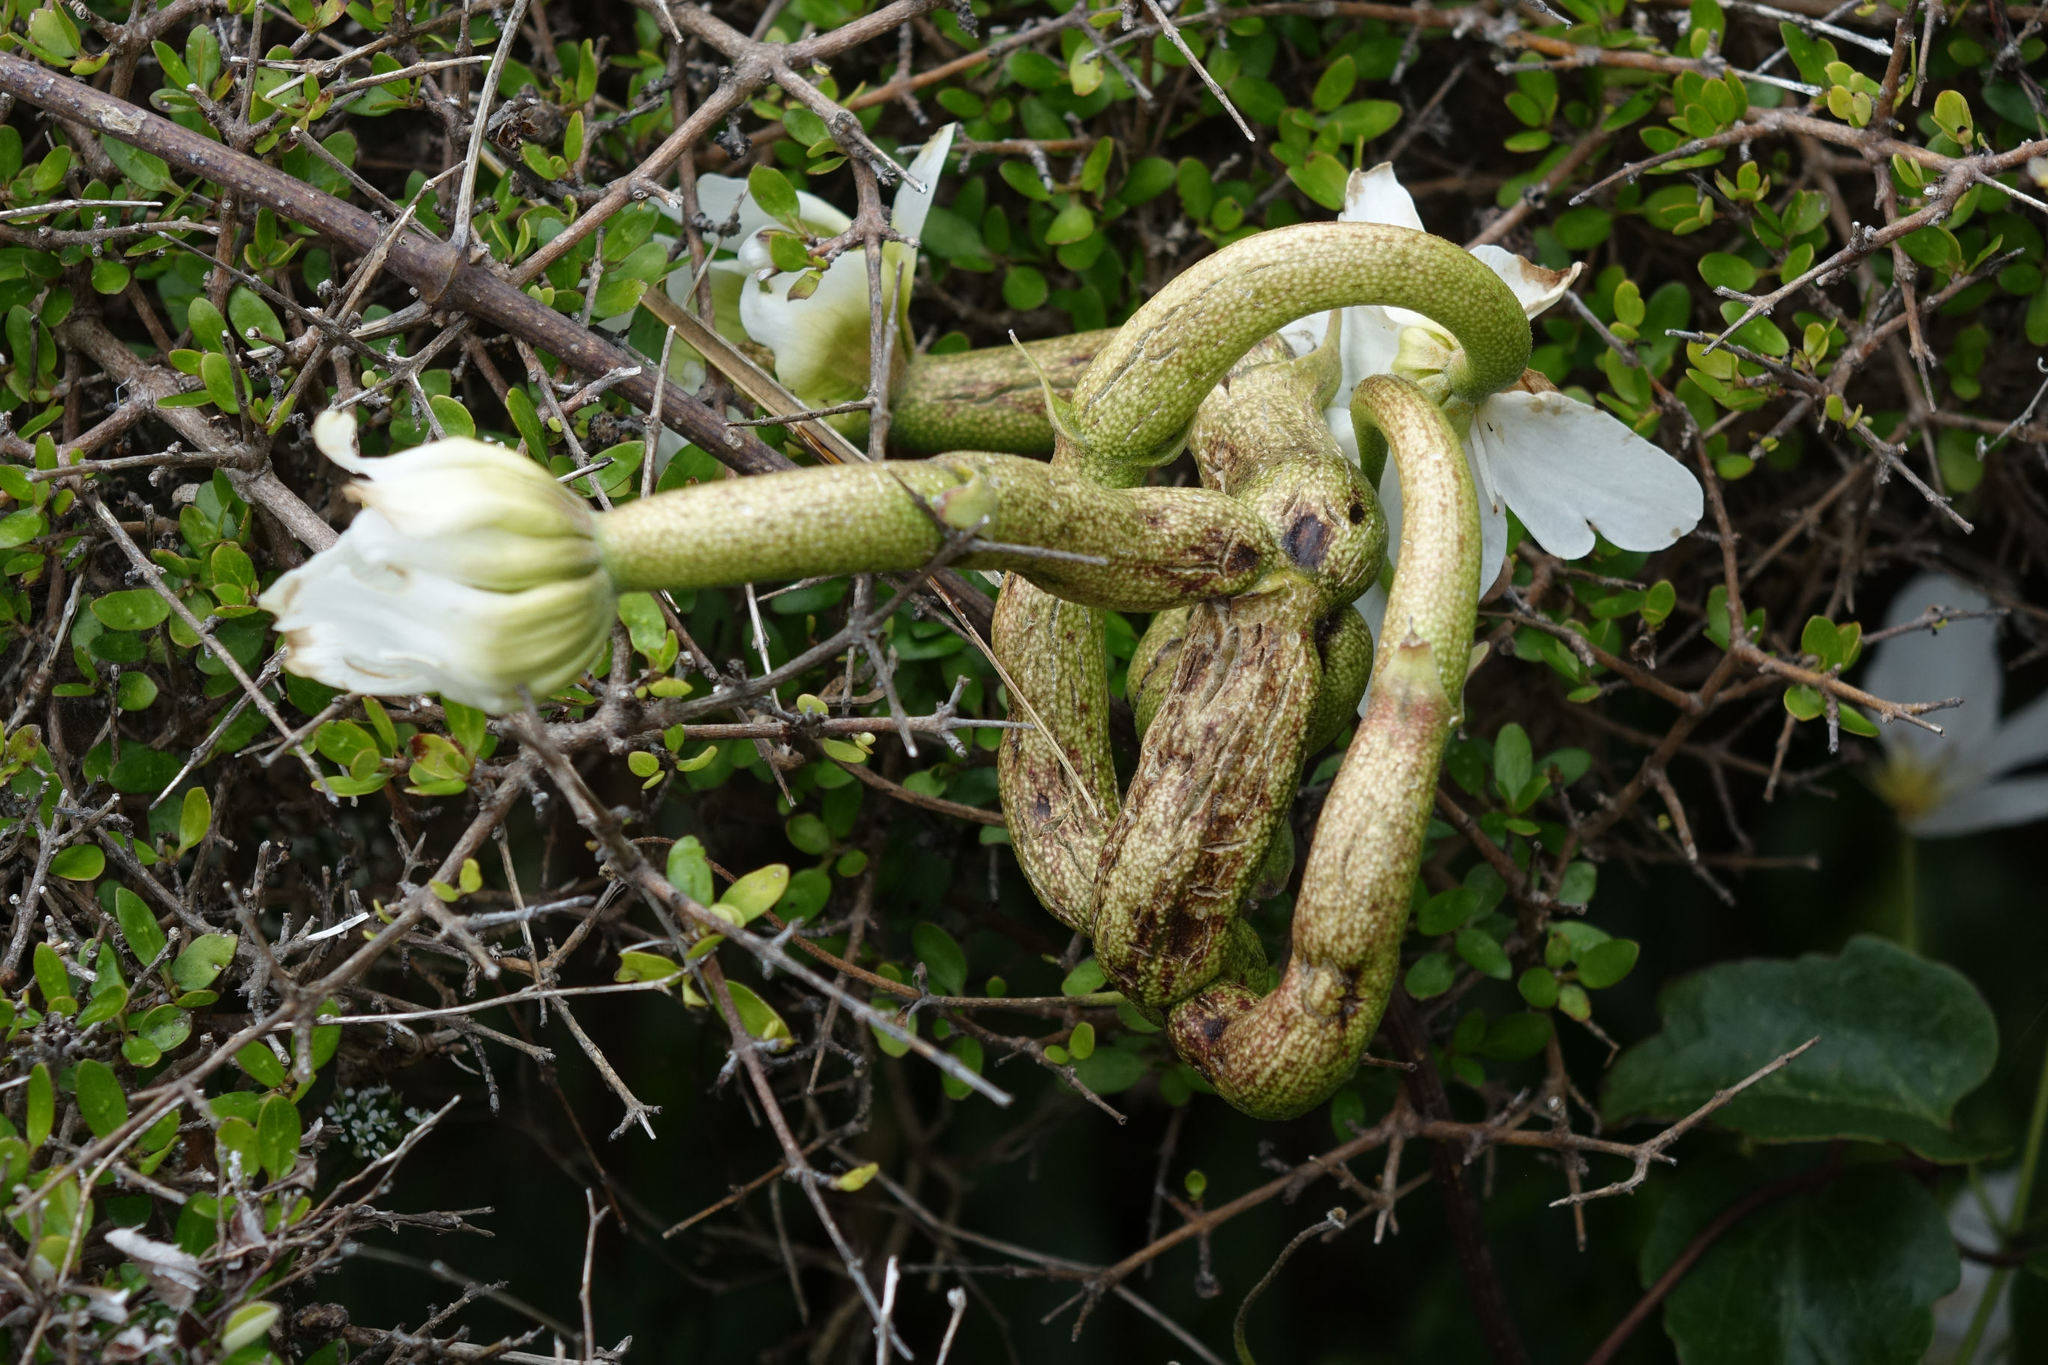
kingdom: Fungi
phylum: Basidiomycota
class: Pucciniomycetes
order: Pucciniales
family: Pucciniaceae
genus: Puccinia
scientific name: Puccinia otagensis
